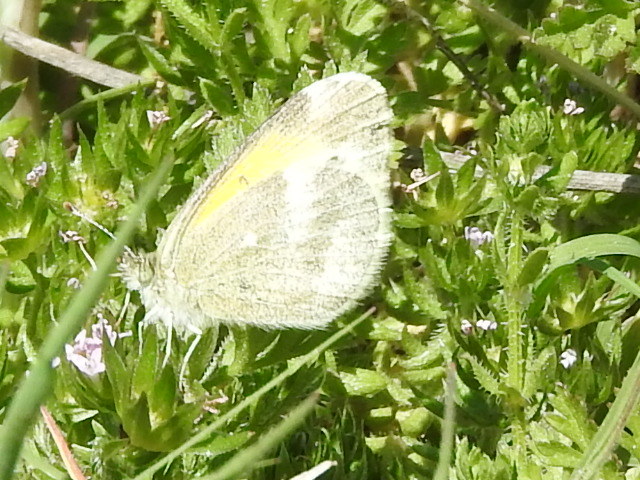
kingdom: Animalia
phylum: Arthropoda
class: Insecta
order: Lepidoptera
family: Pieridae
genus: Nathalis
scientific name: Nathalis iole
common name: Dainty sulphur
